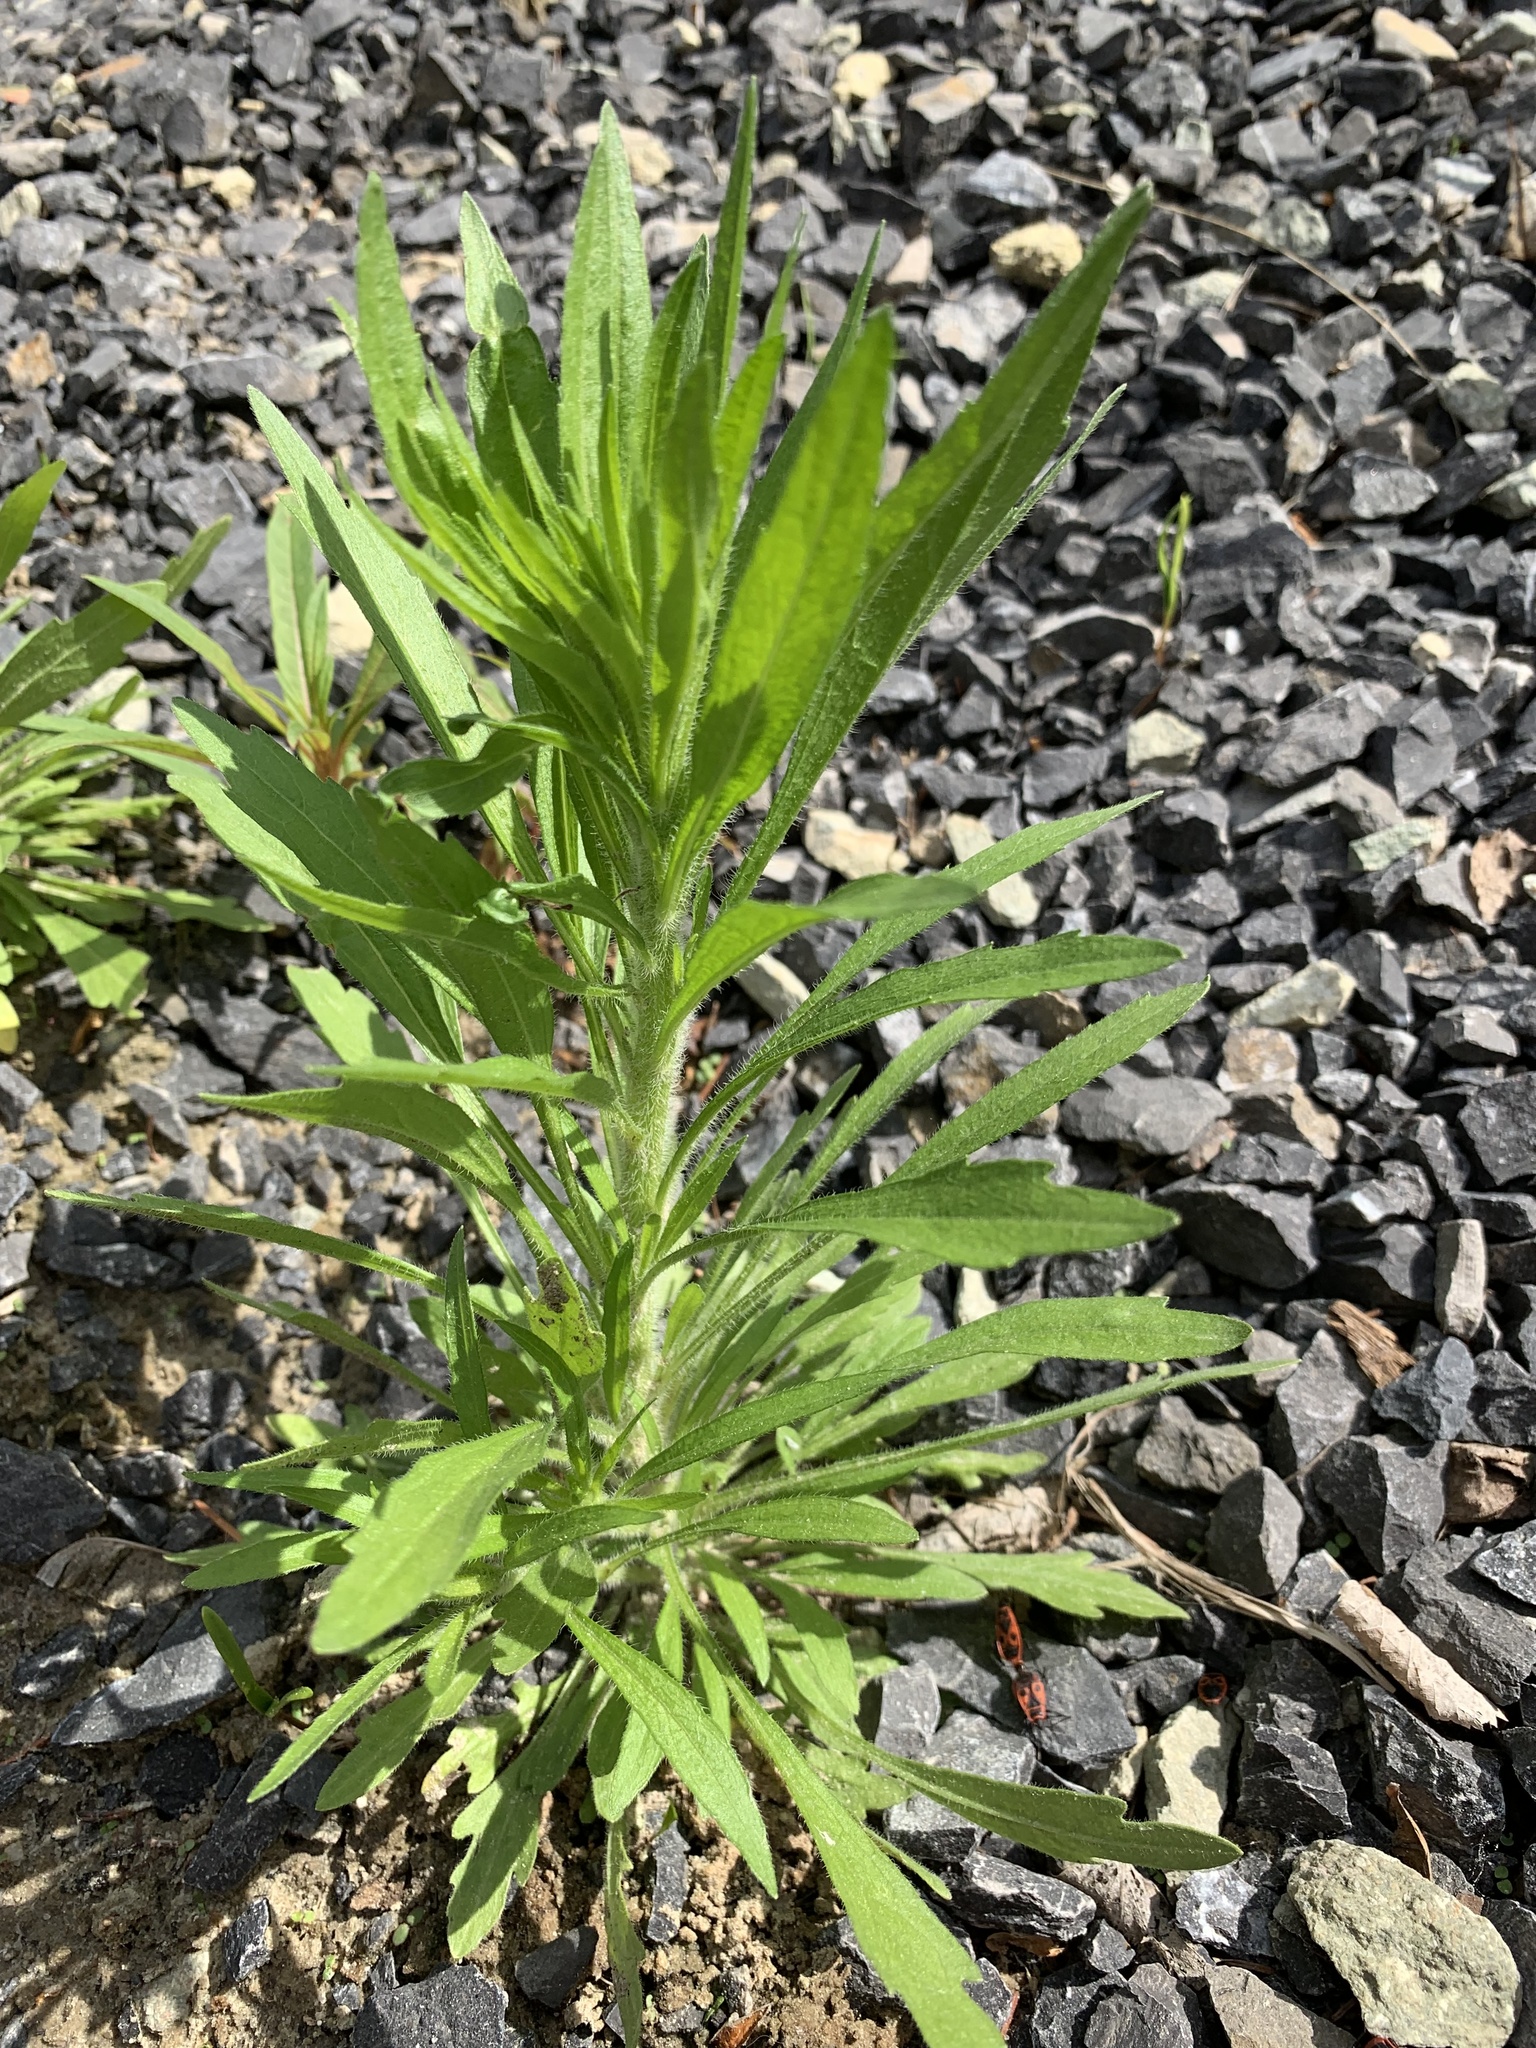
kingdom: Plantae
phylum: Tracheophyta
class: Magnoliopsida
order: Asterales
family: Asteraceae
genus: Erigeron
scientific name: Erigeron canadensis
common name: Canadian fleabane
